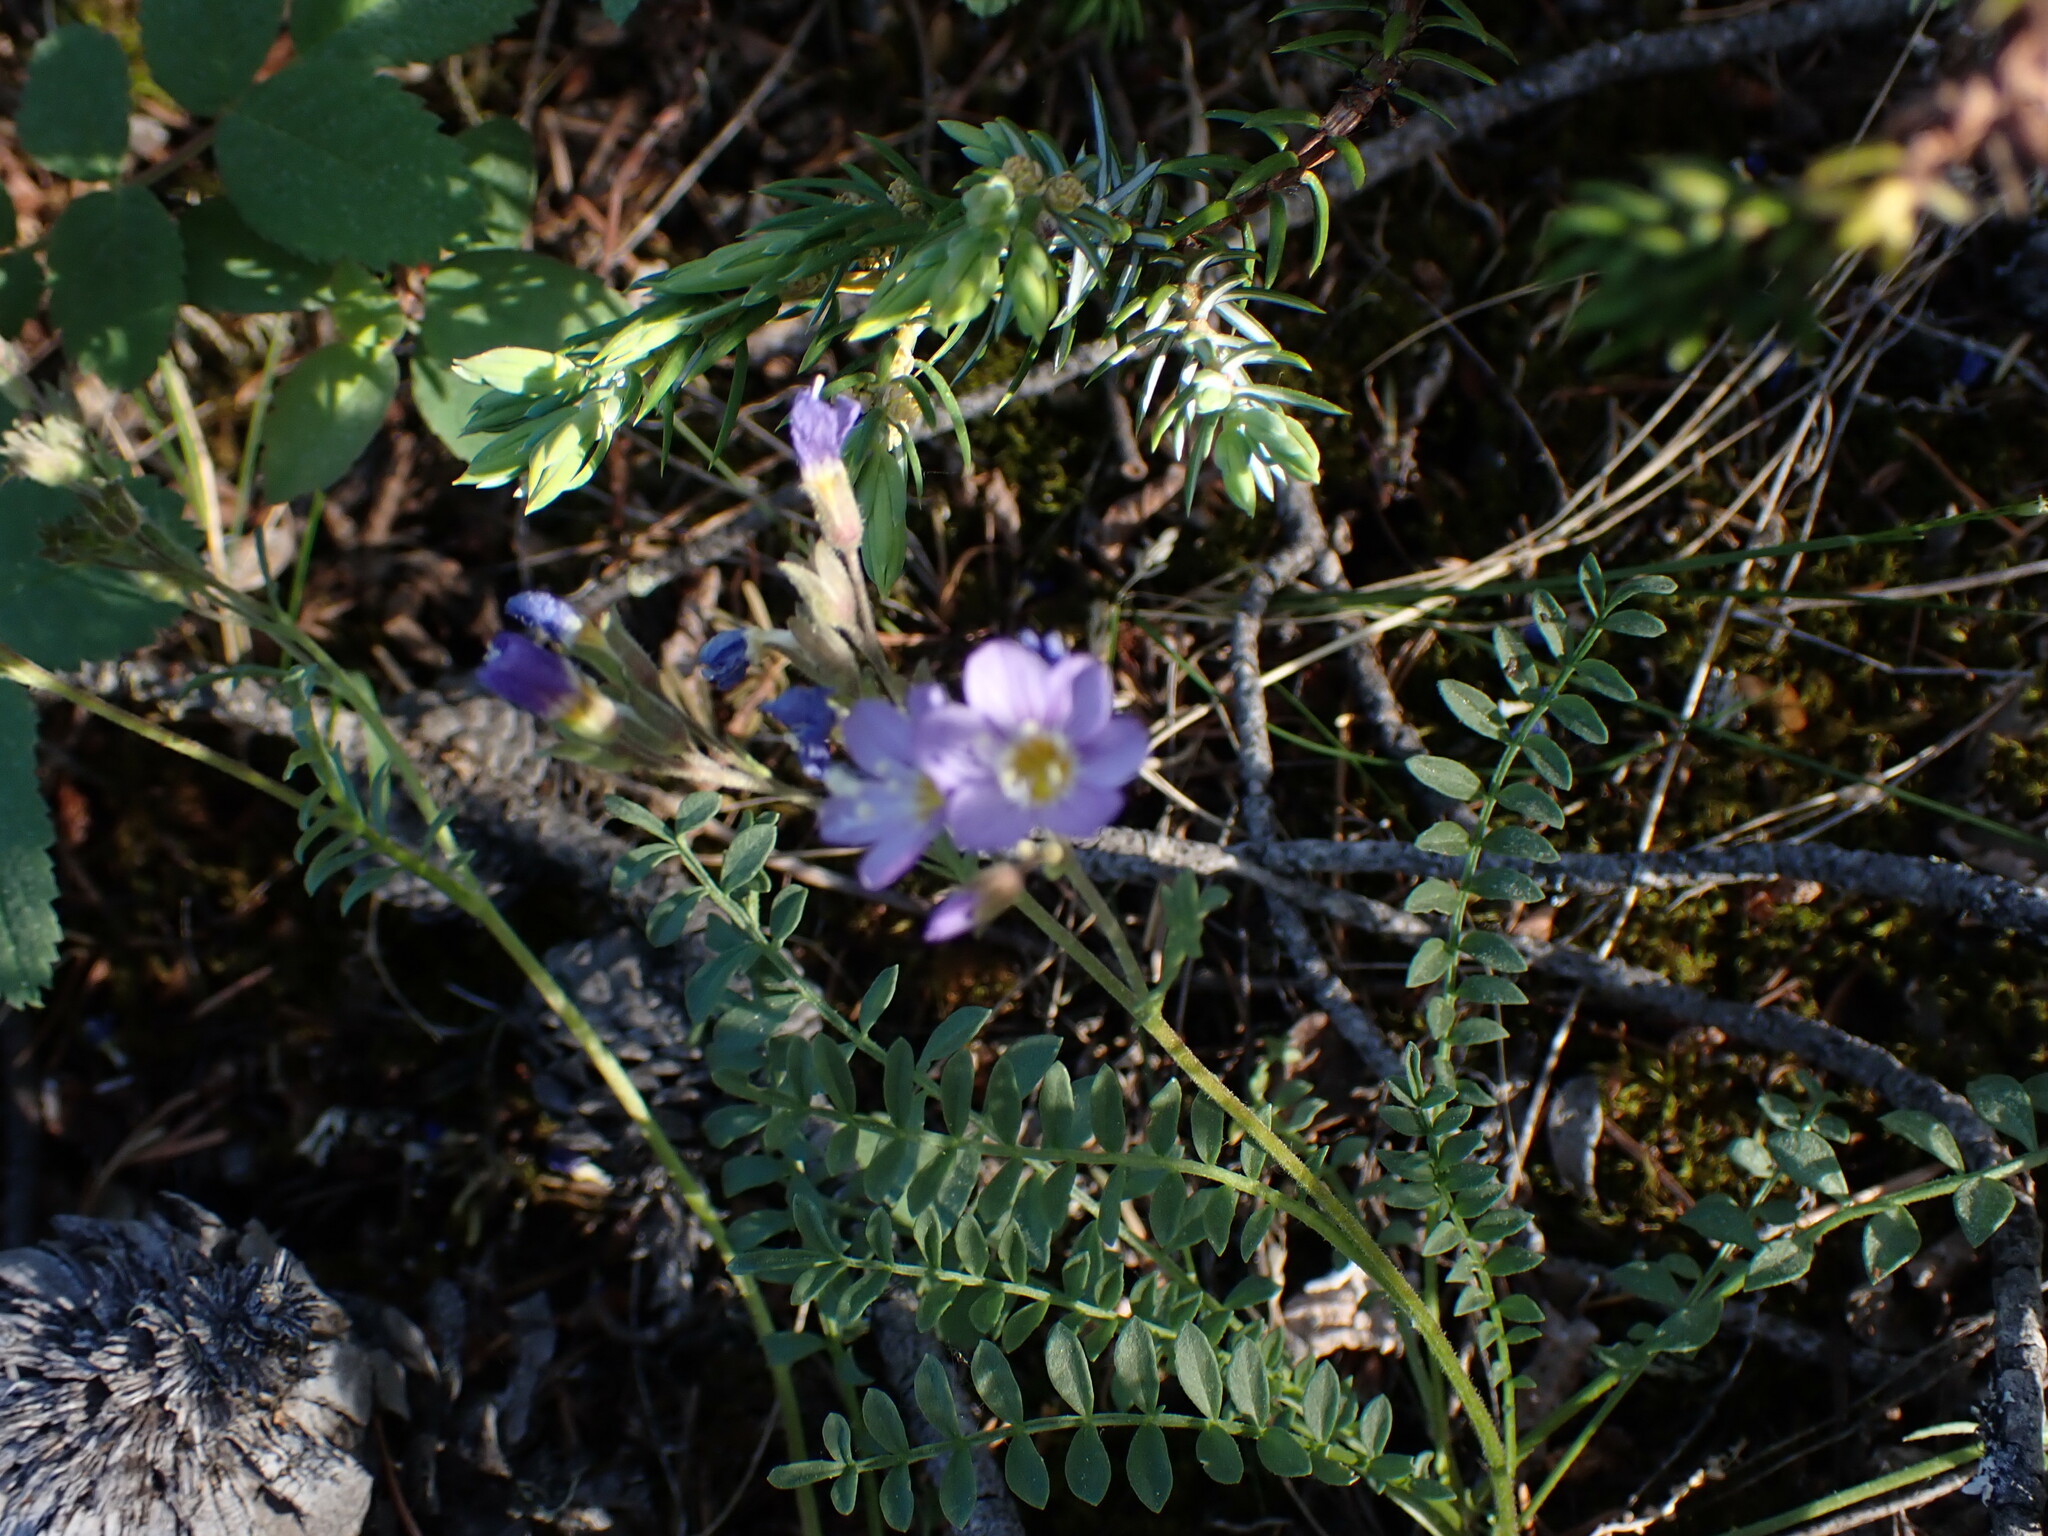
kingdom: Plantae
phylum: Tracheophyta
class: Magnoliopsida
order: Ericales
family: Polemoniaceae
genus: Polemonium
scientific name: Polemonium pulcherrimum
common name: Short jacob's-ladder
